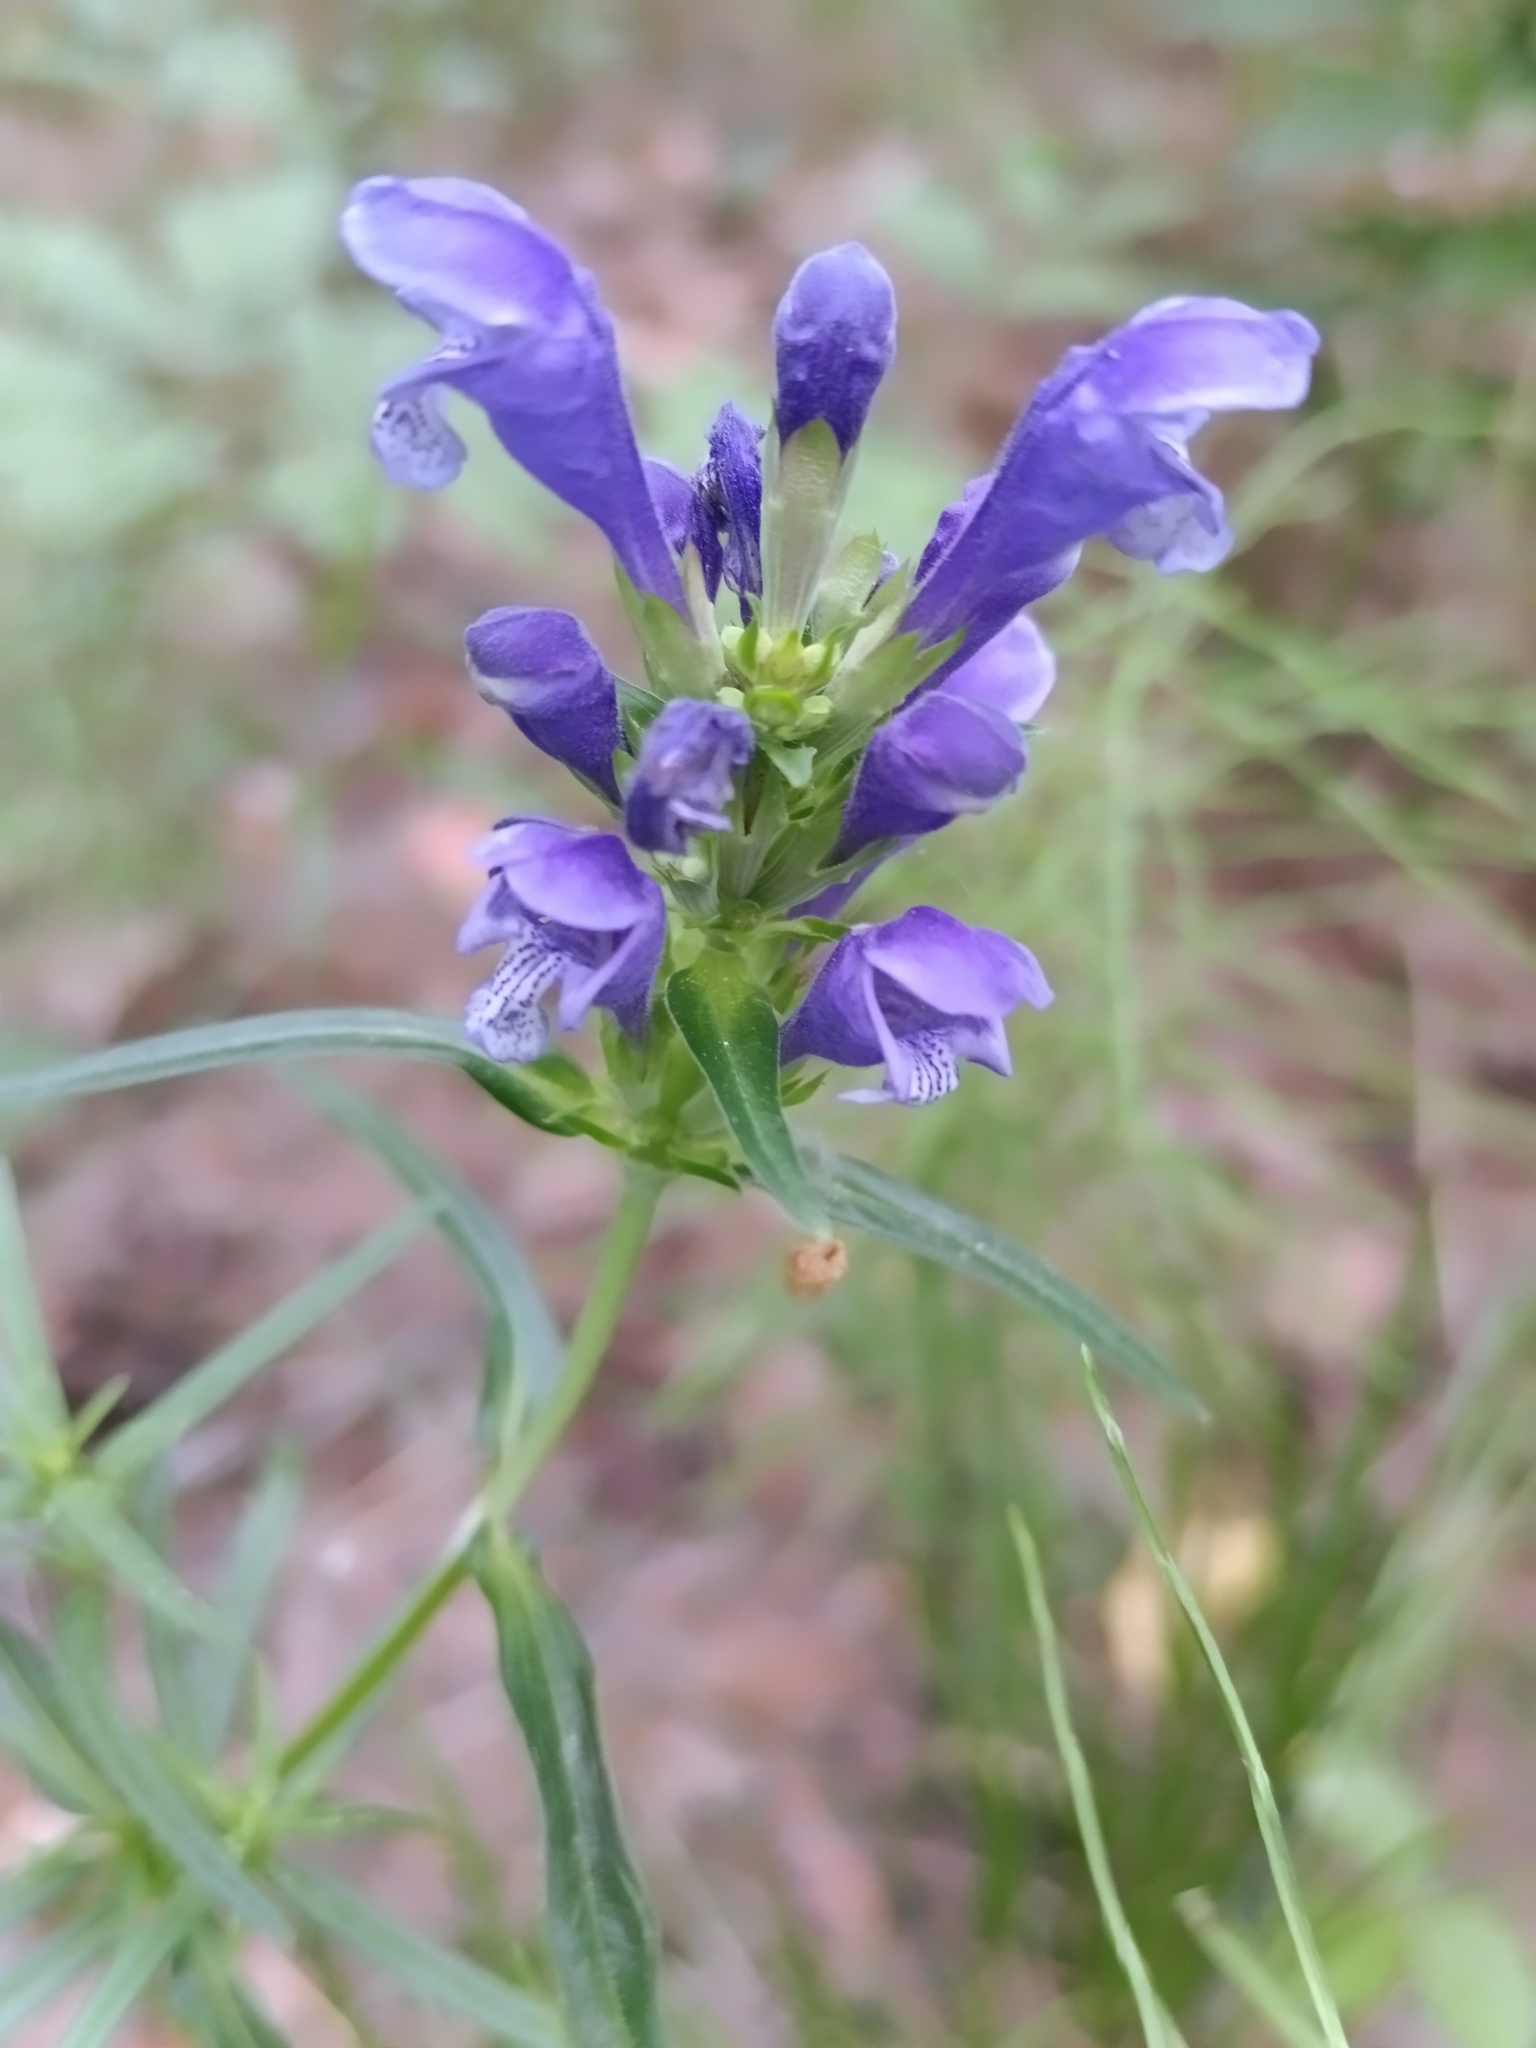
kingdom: Plantae
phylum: Tracheophyta
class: Magnoliopsida
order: Lamiales
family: Lamiaceae
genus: Dracocephalum
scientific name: Dracocephalum ruyschiana
